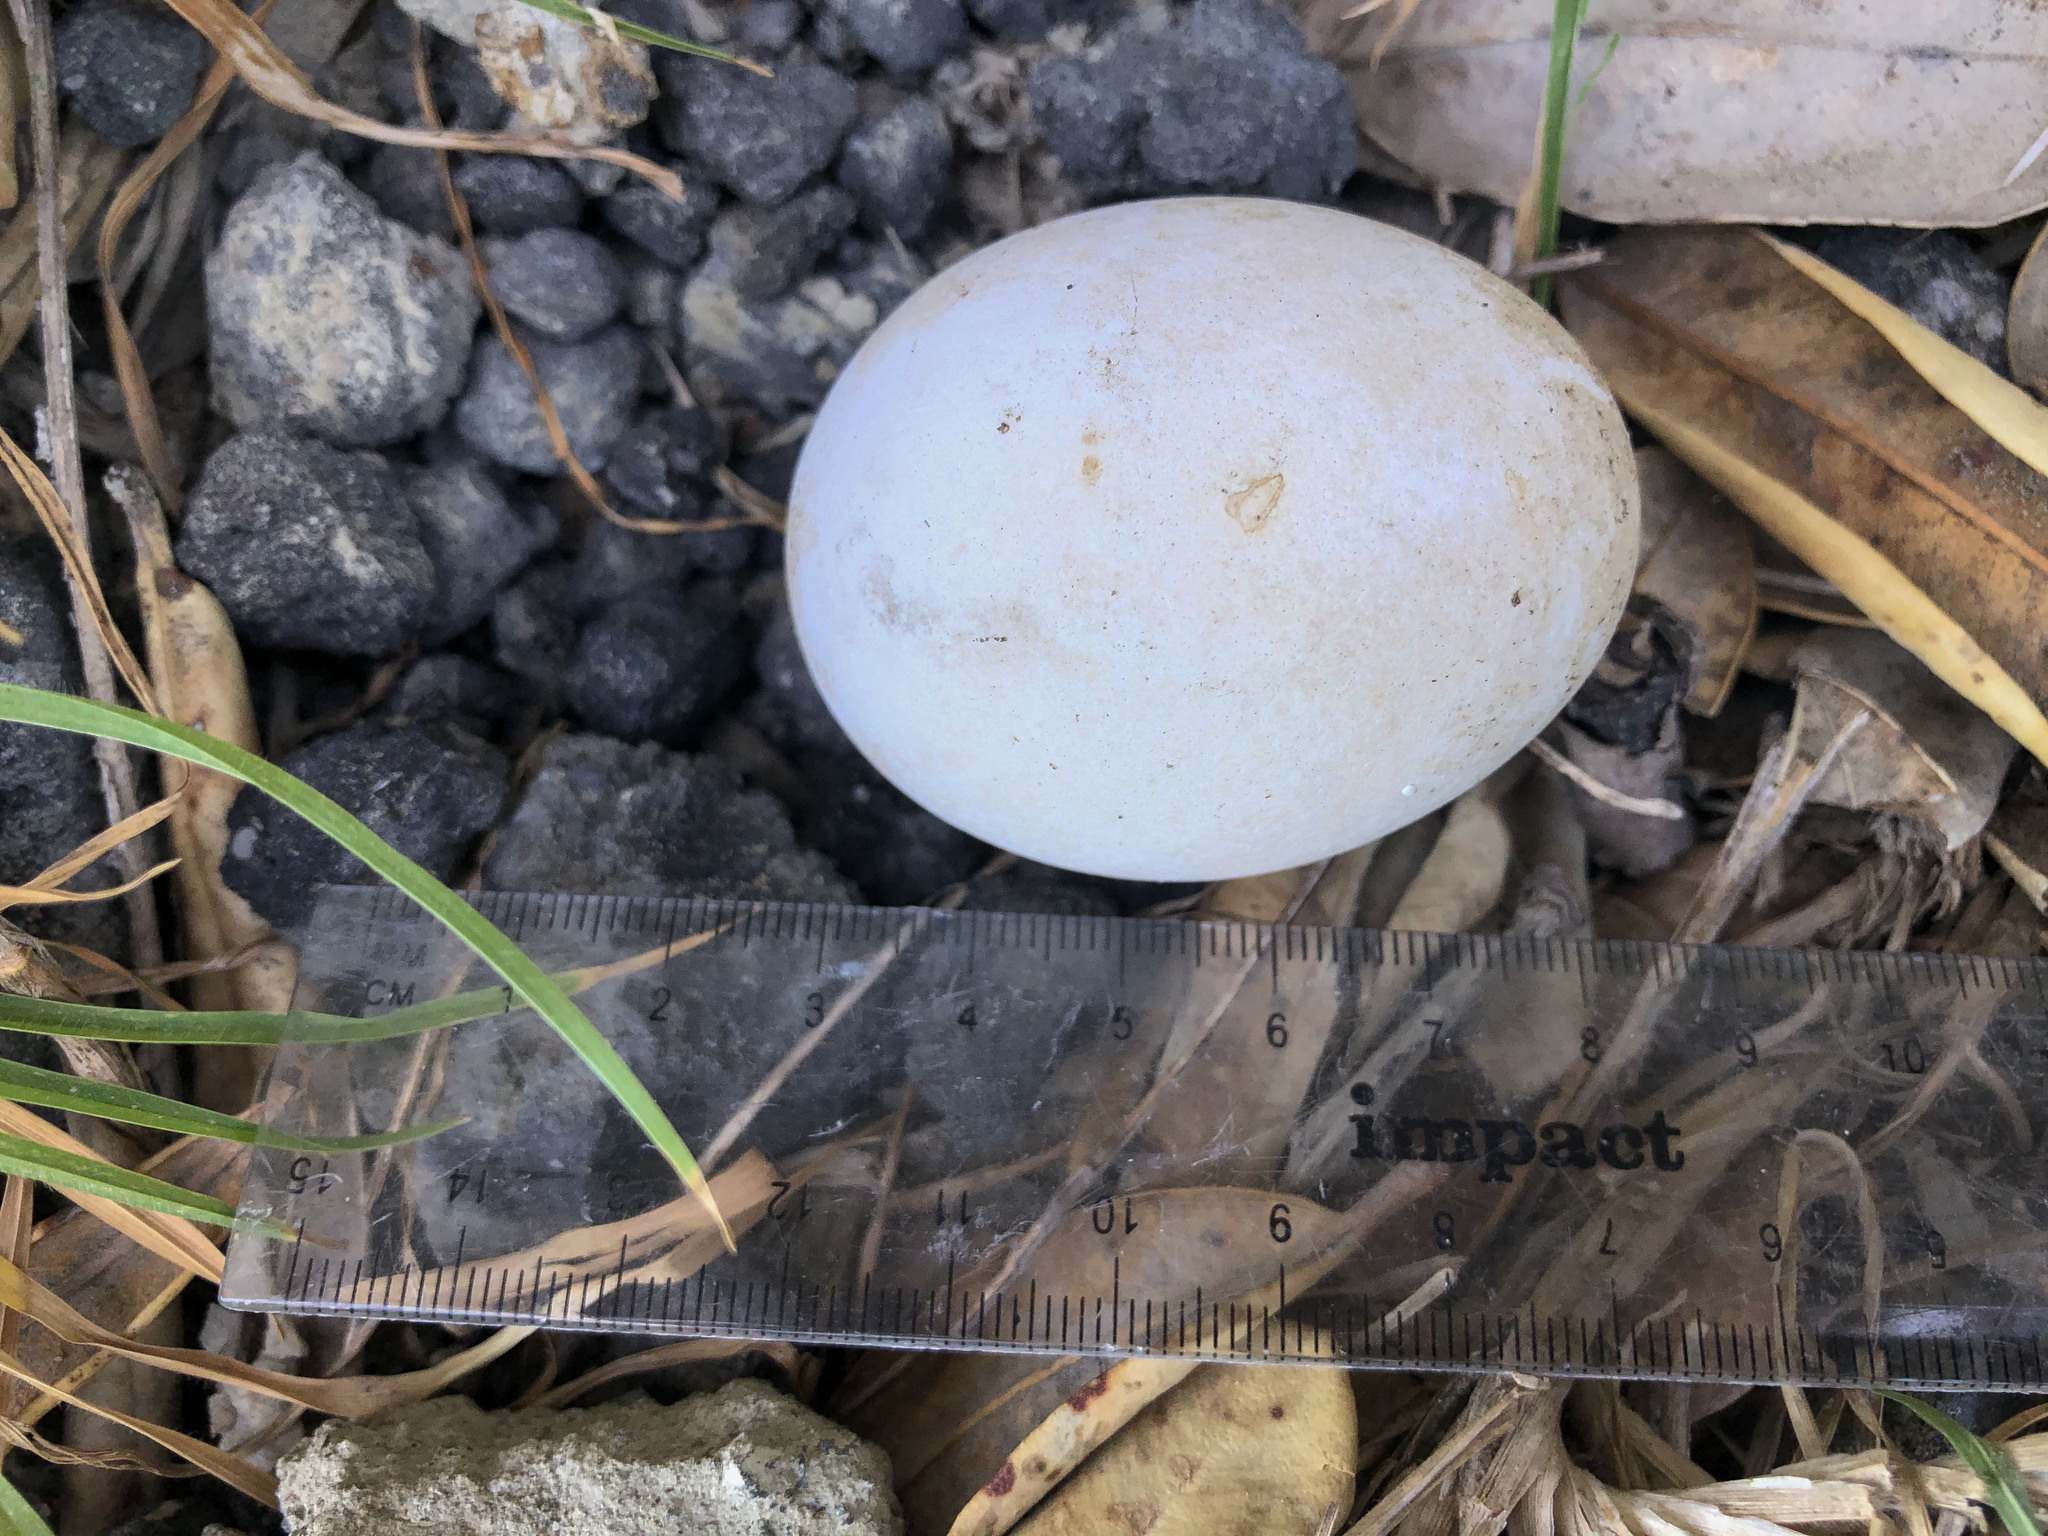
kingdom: Animalia
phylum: Chordata
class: Aves
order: Anseriformes
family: Anatidae
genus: Anas
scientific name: Anas platyrhynchos
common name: Mallard
